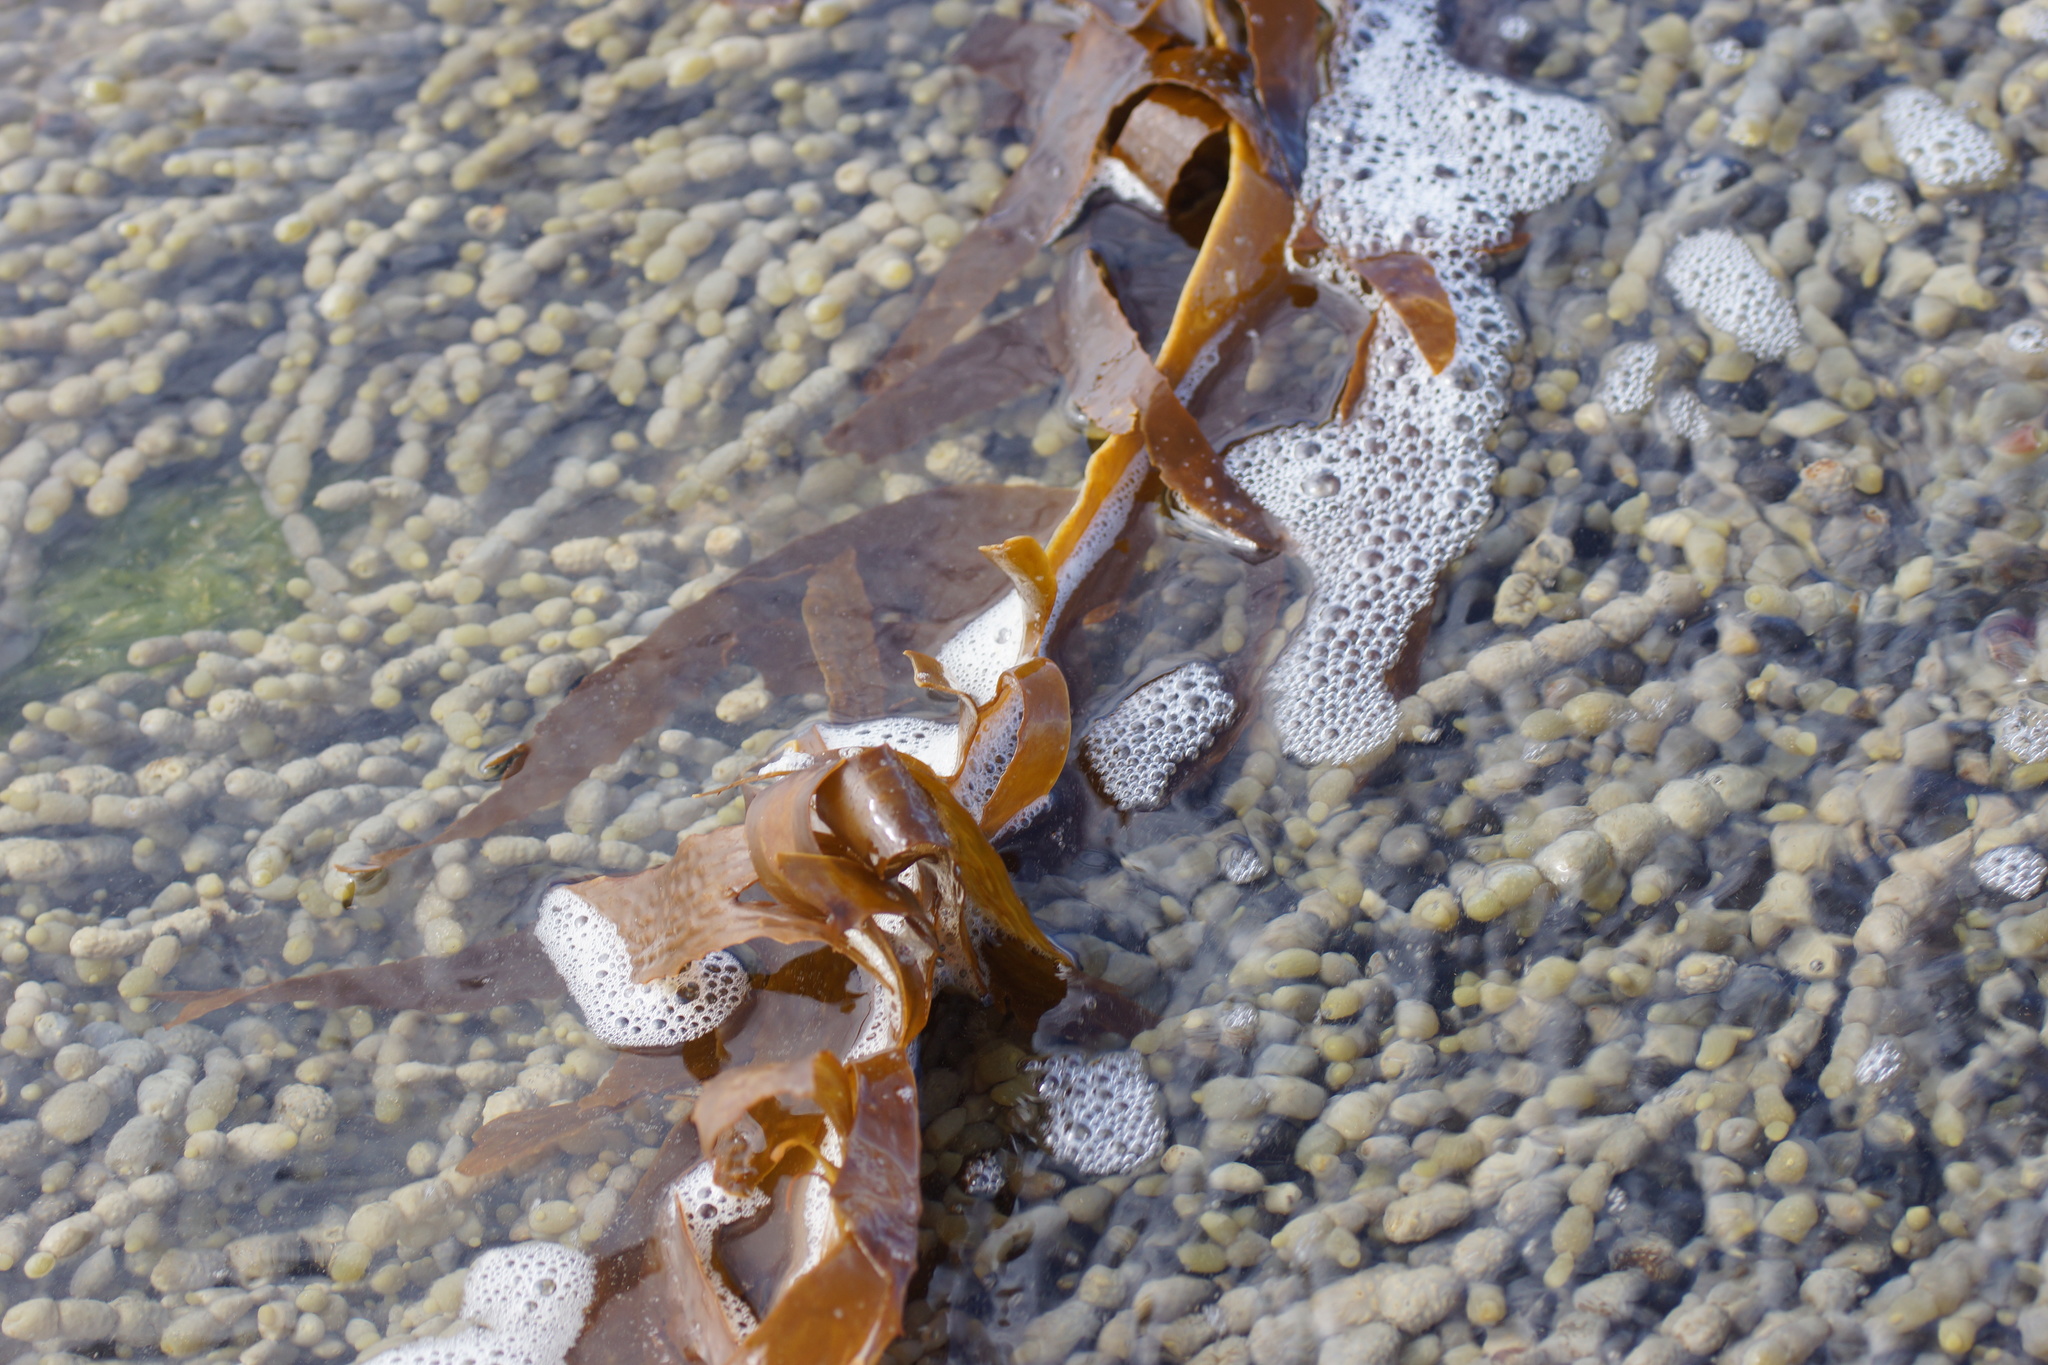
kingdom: Chromista
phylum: Ochrophyta
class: Phaeophyceae
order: Laminariales
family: Lessoniaceae
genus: Ecklonia
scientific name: Ecklonia radiata
